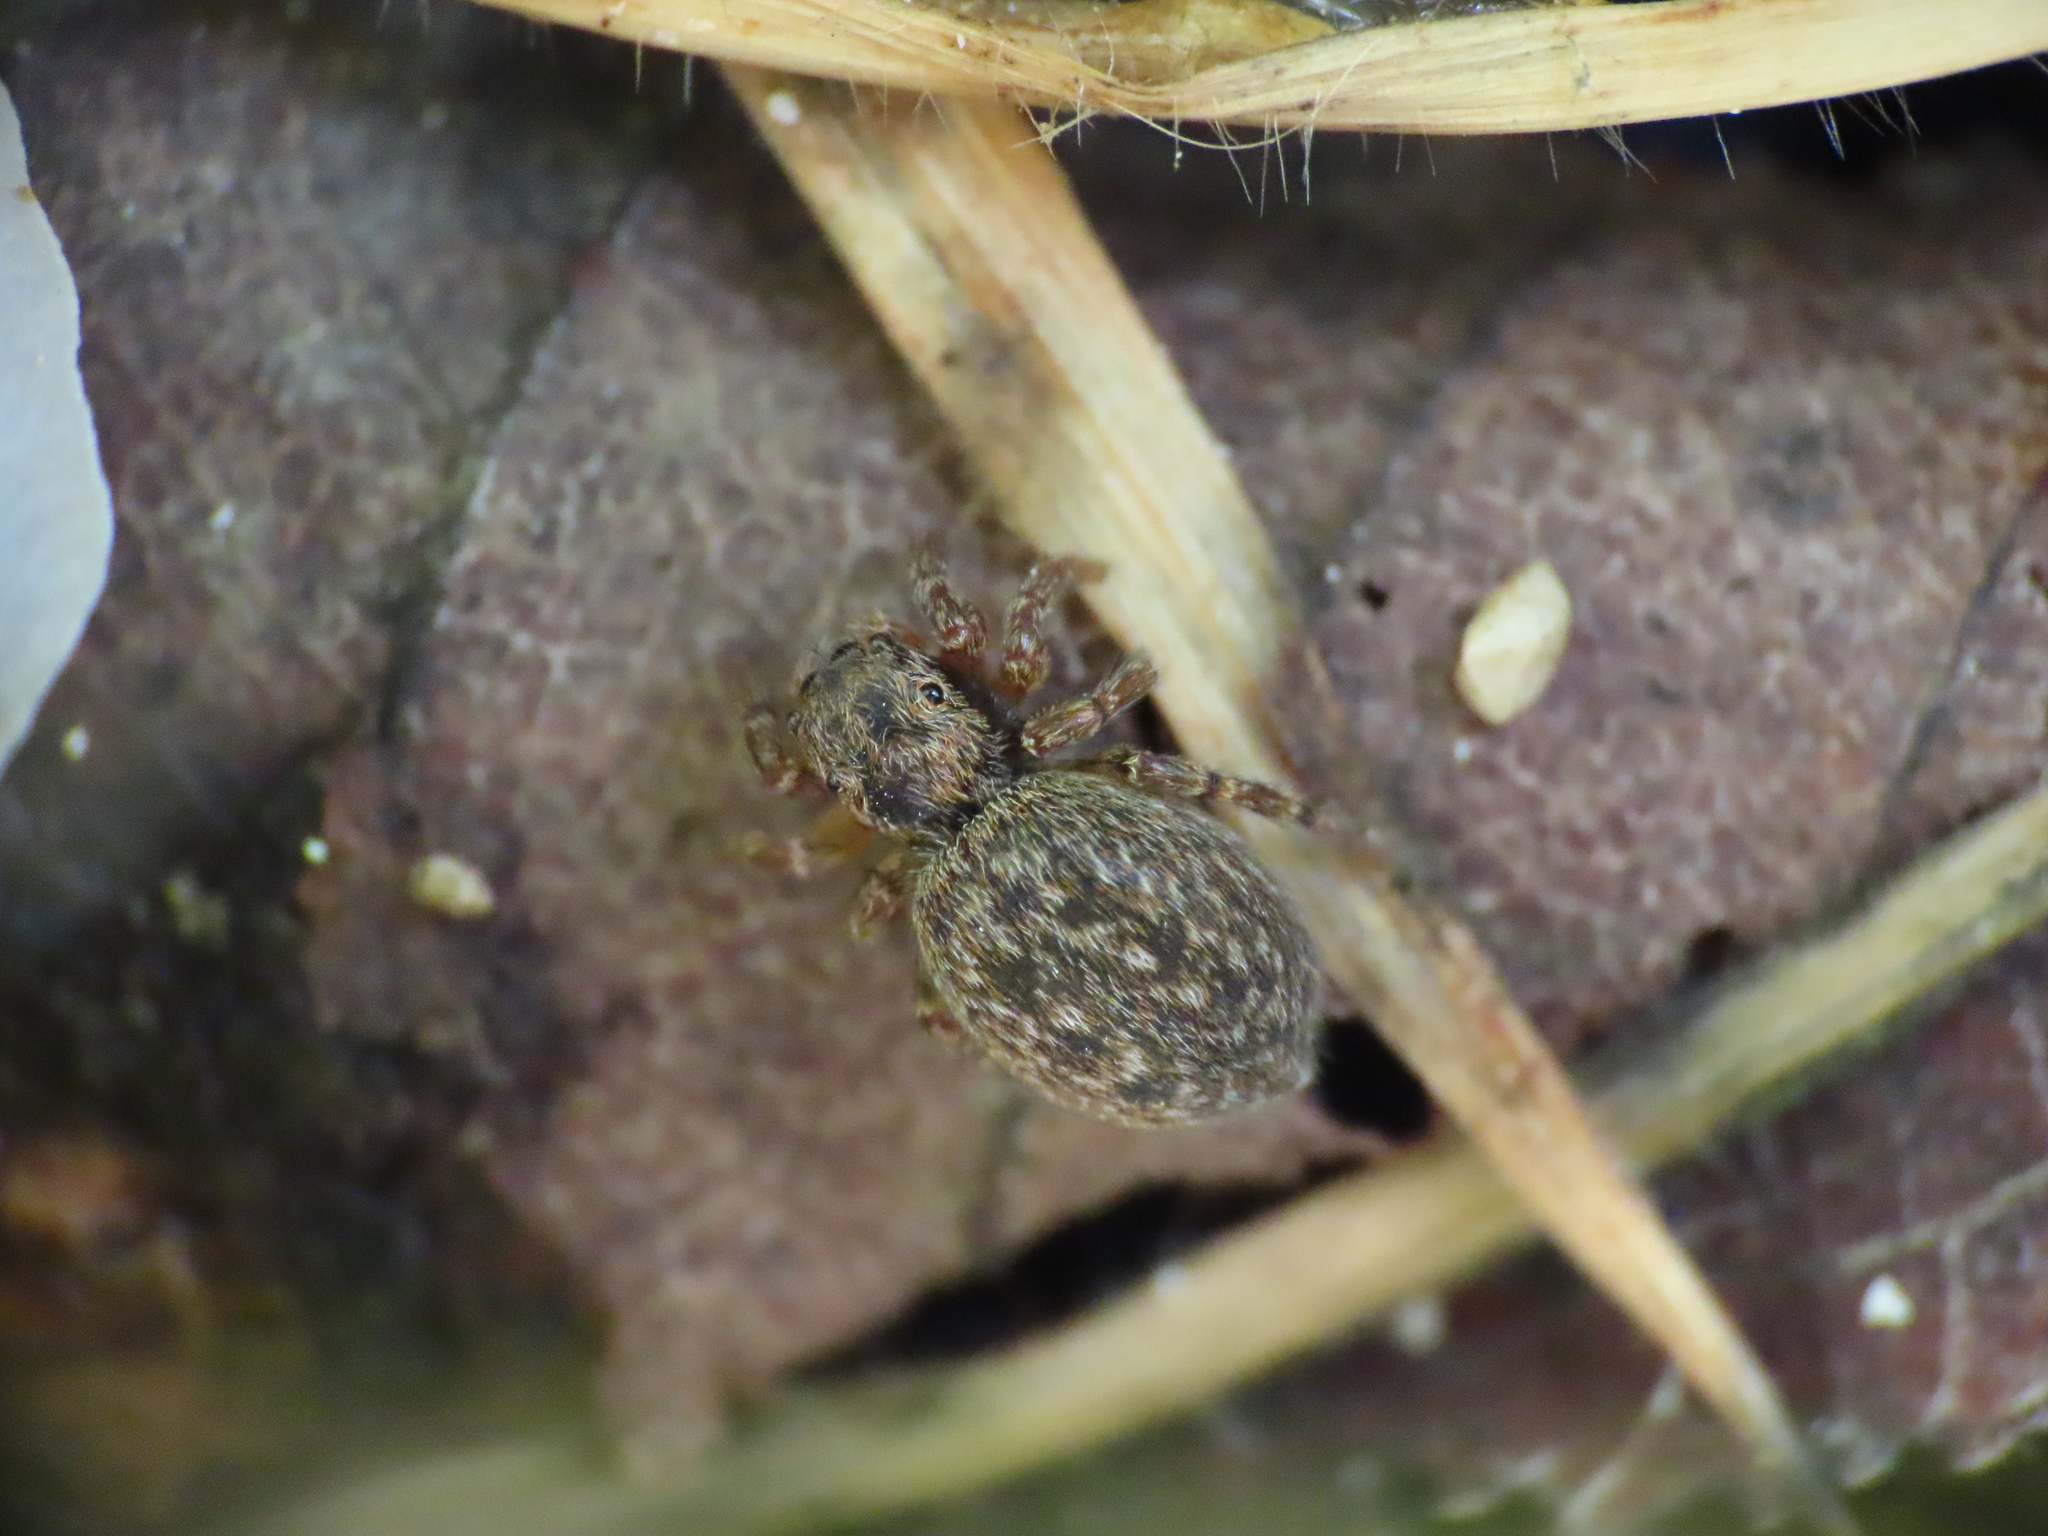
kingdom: Animalia
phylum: Arthropoda
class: Arachnida
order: Araneae
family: Salticidae
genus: Euophrys
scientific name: Euophrys rufibarbis
